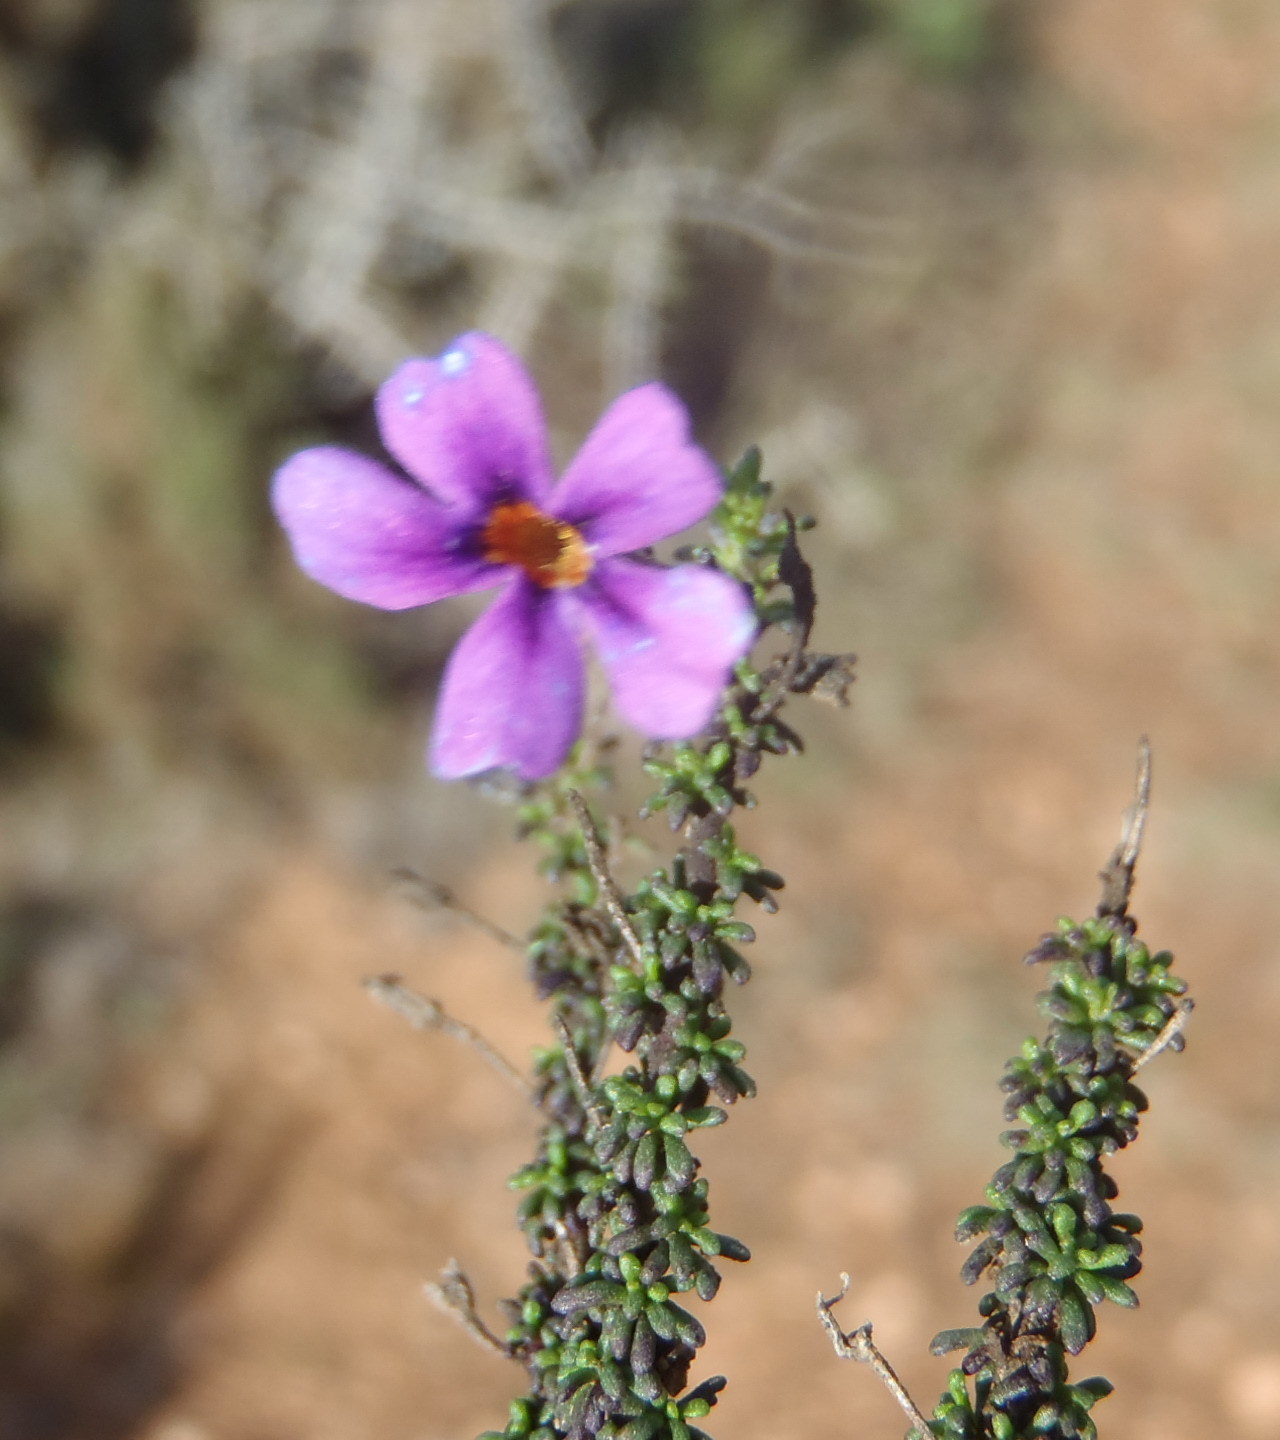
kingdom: Plantae
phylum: Tracheophyta
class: Magnoliopsida
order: Lamiales
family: Scrophulariaceae
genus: Jamesbrittenia
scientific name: Jamesbrittenia calciphila
